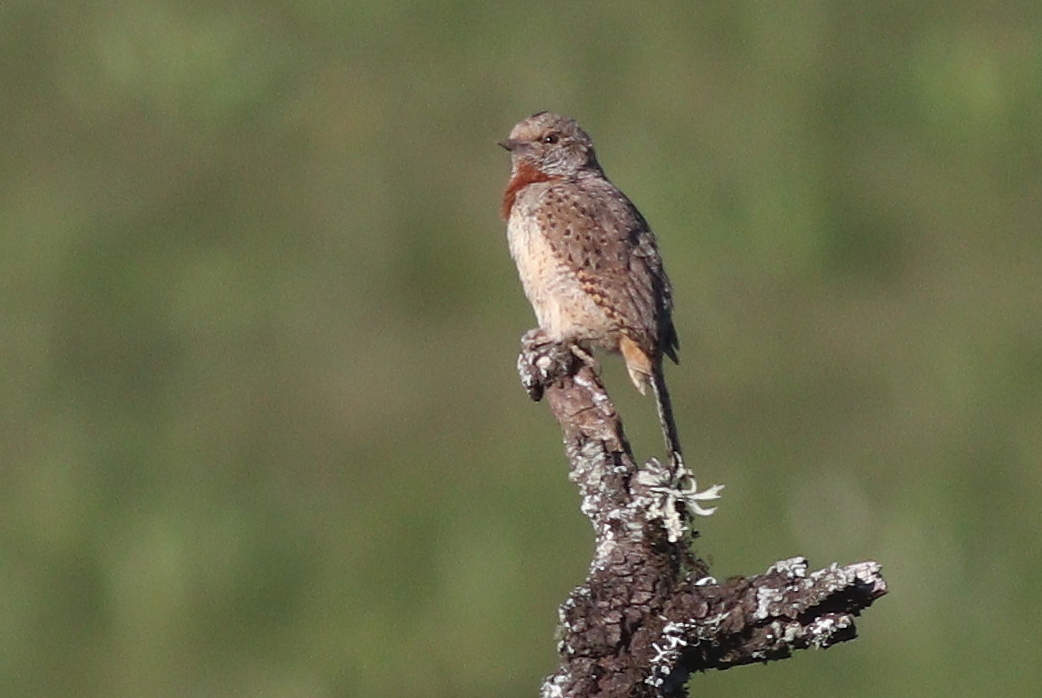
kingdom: Animalia
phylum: Chordata
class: Aves
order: Piciformes
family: Picidae
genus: Jynx
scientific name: Jynx ruficollis
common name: Red-throated wryneck
